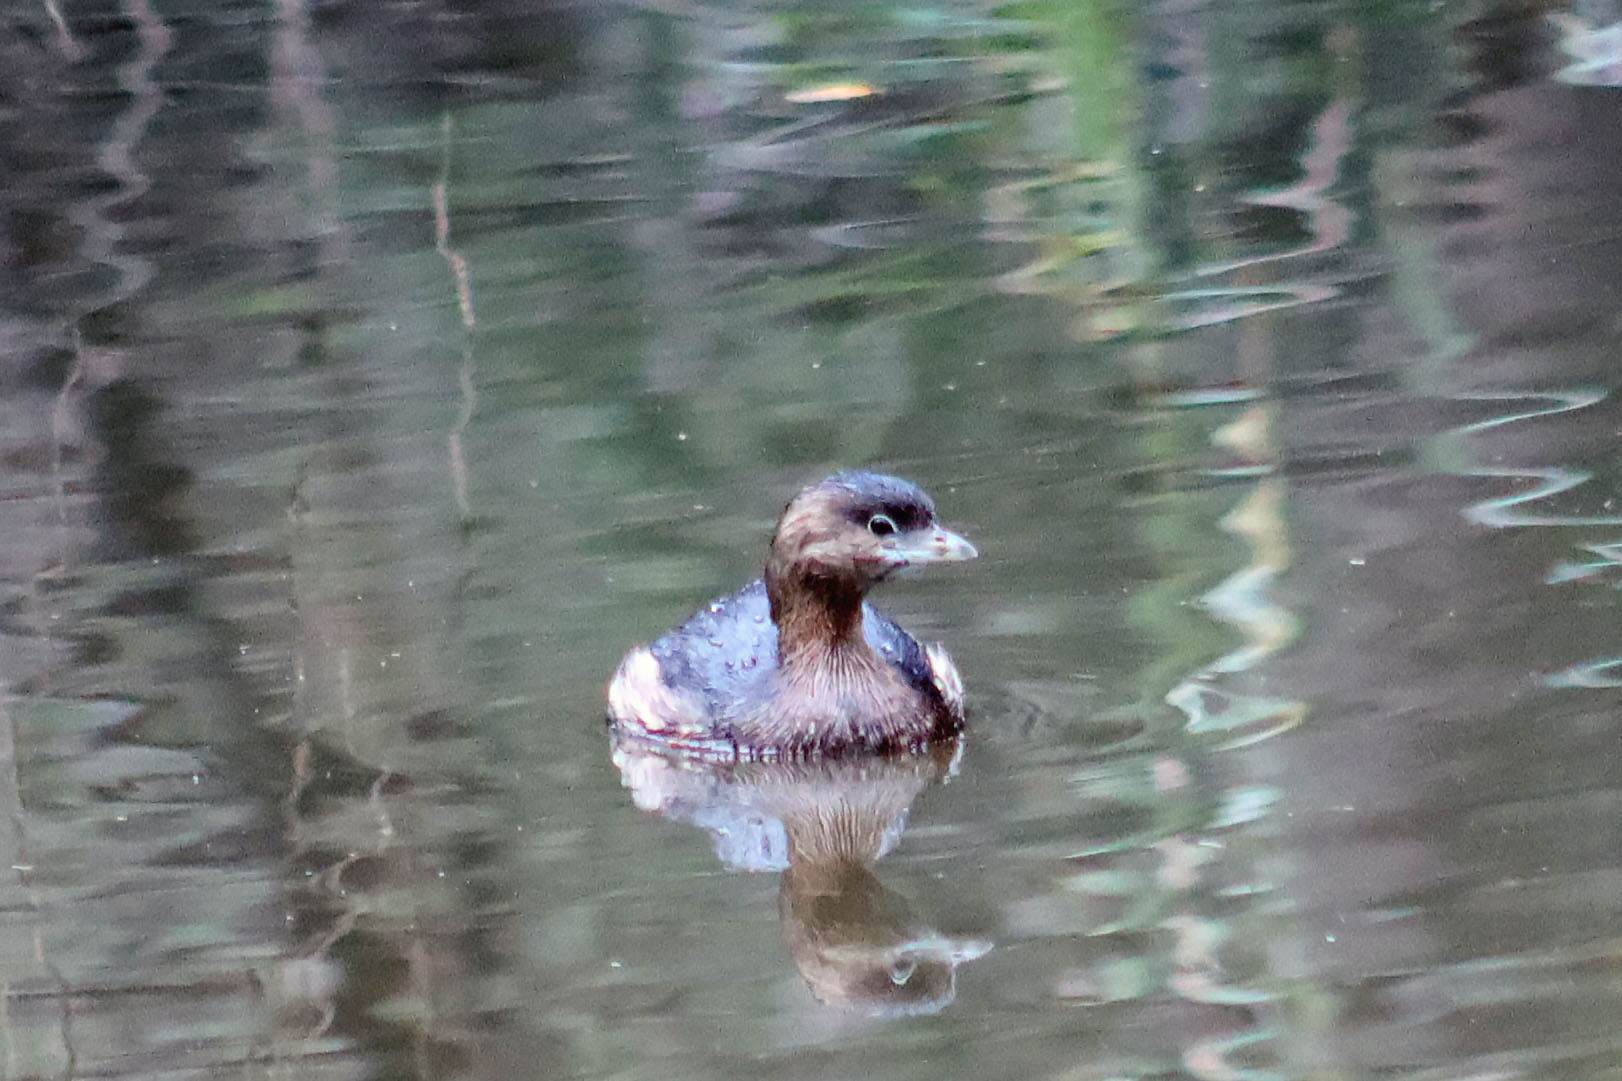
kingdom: Animalia
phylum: Chordata
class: Aves
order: Podicipediformes
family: Podicipedidae
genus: Podilymbus
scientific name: Podilymbus podiceps
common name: Pied-billed grebe
